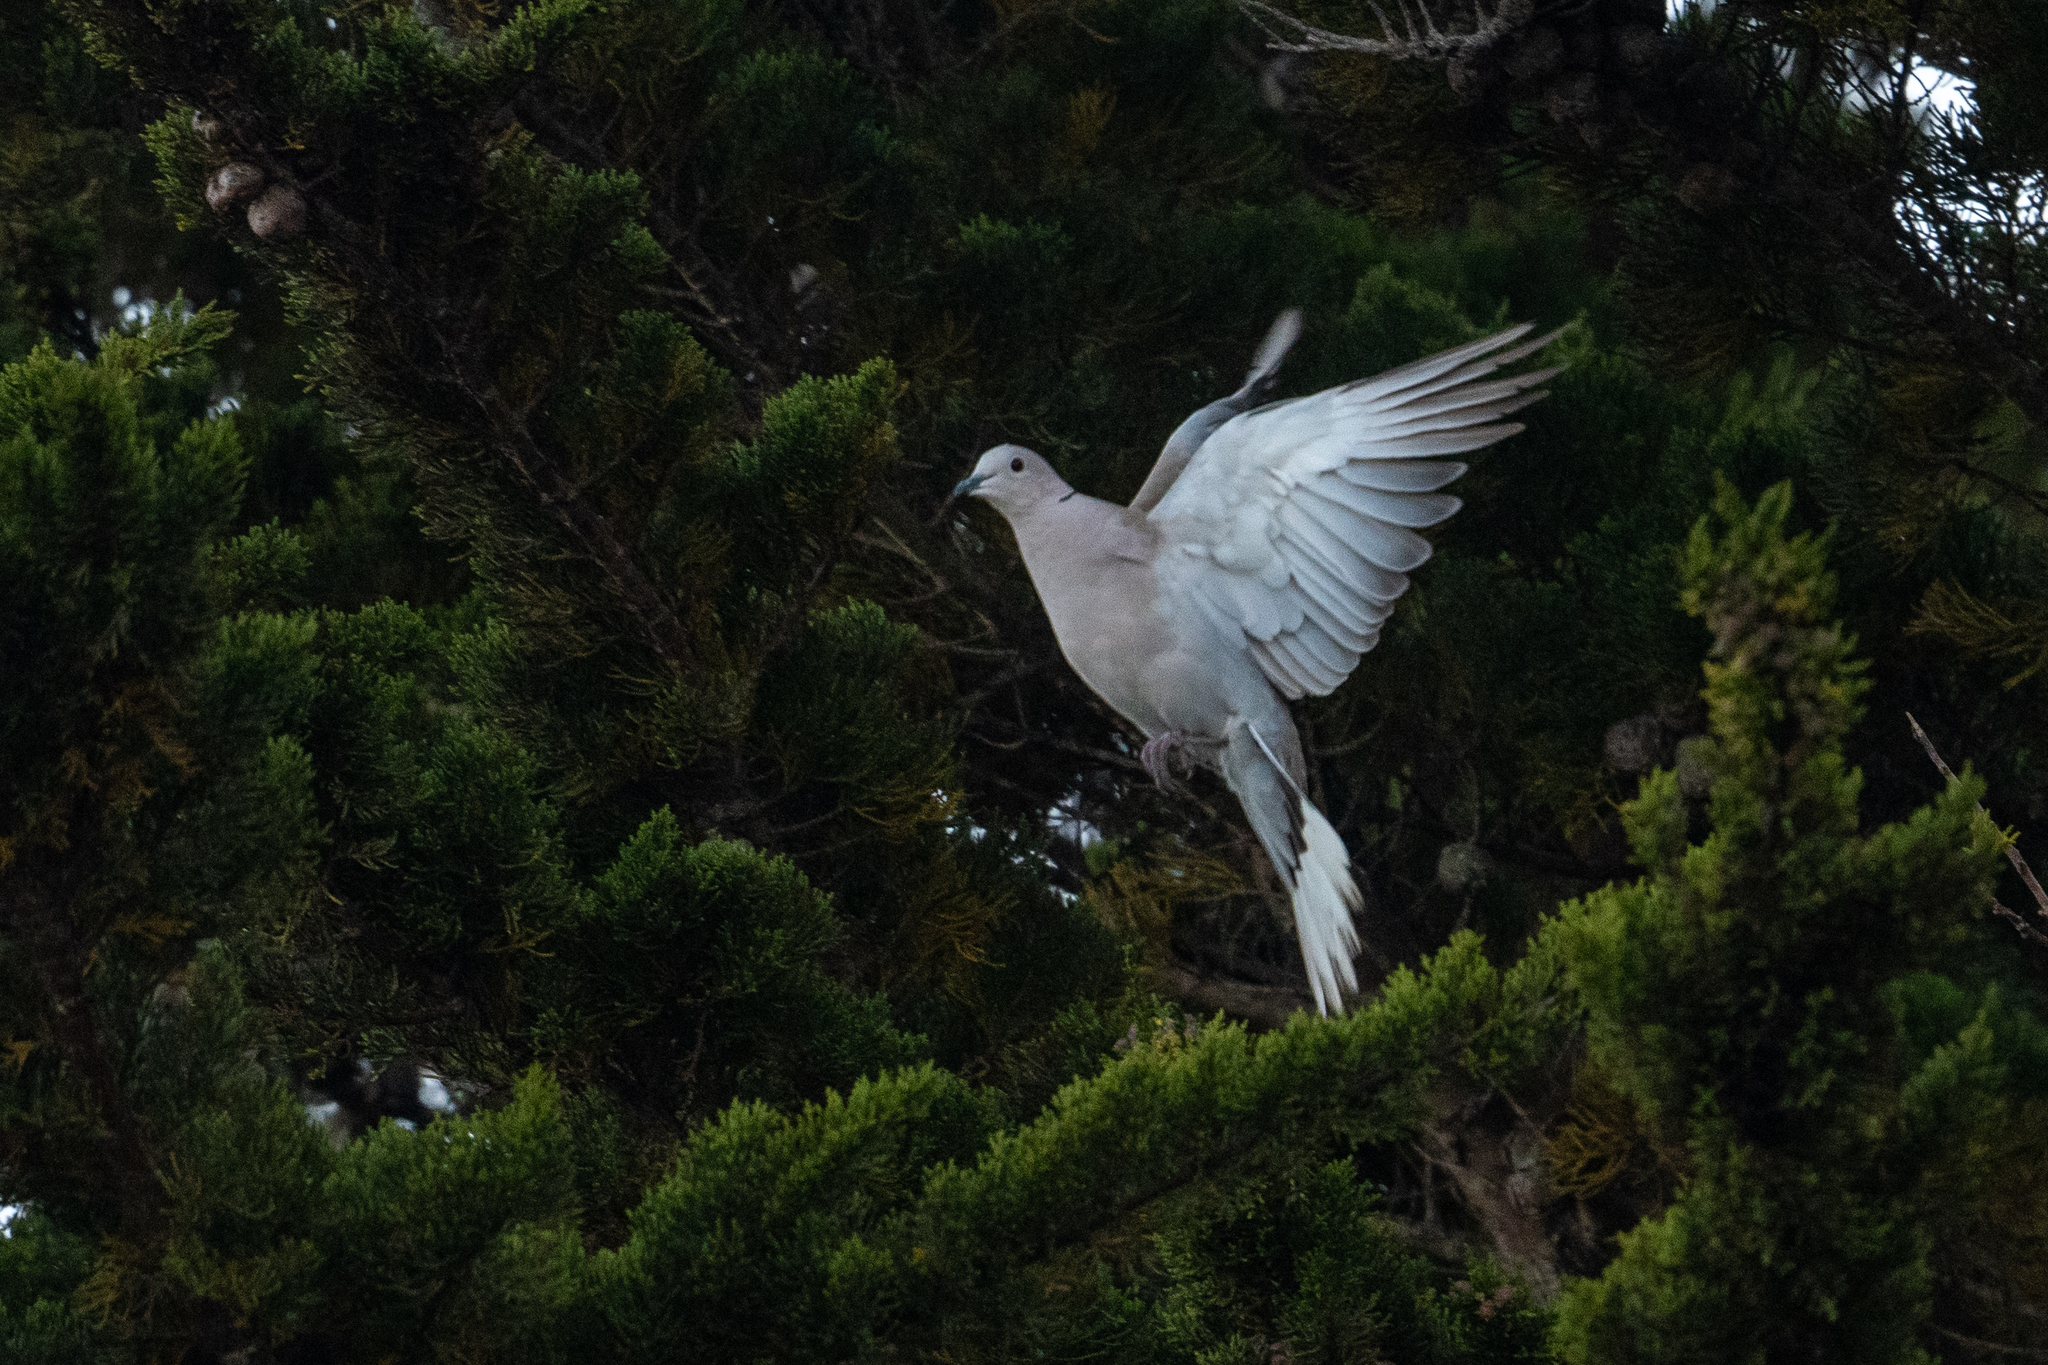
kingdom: Animalia
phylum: Chordata
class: Aves
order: Columbiformes
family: Columbidae
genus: Streptopelia
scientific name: Streptopelia decaocto
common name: Eurasian collared dove
